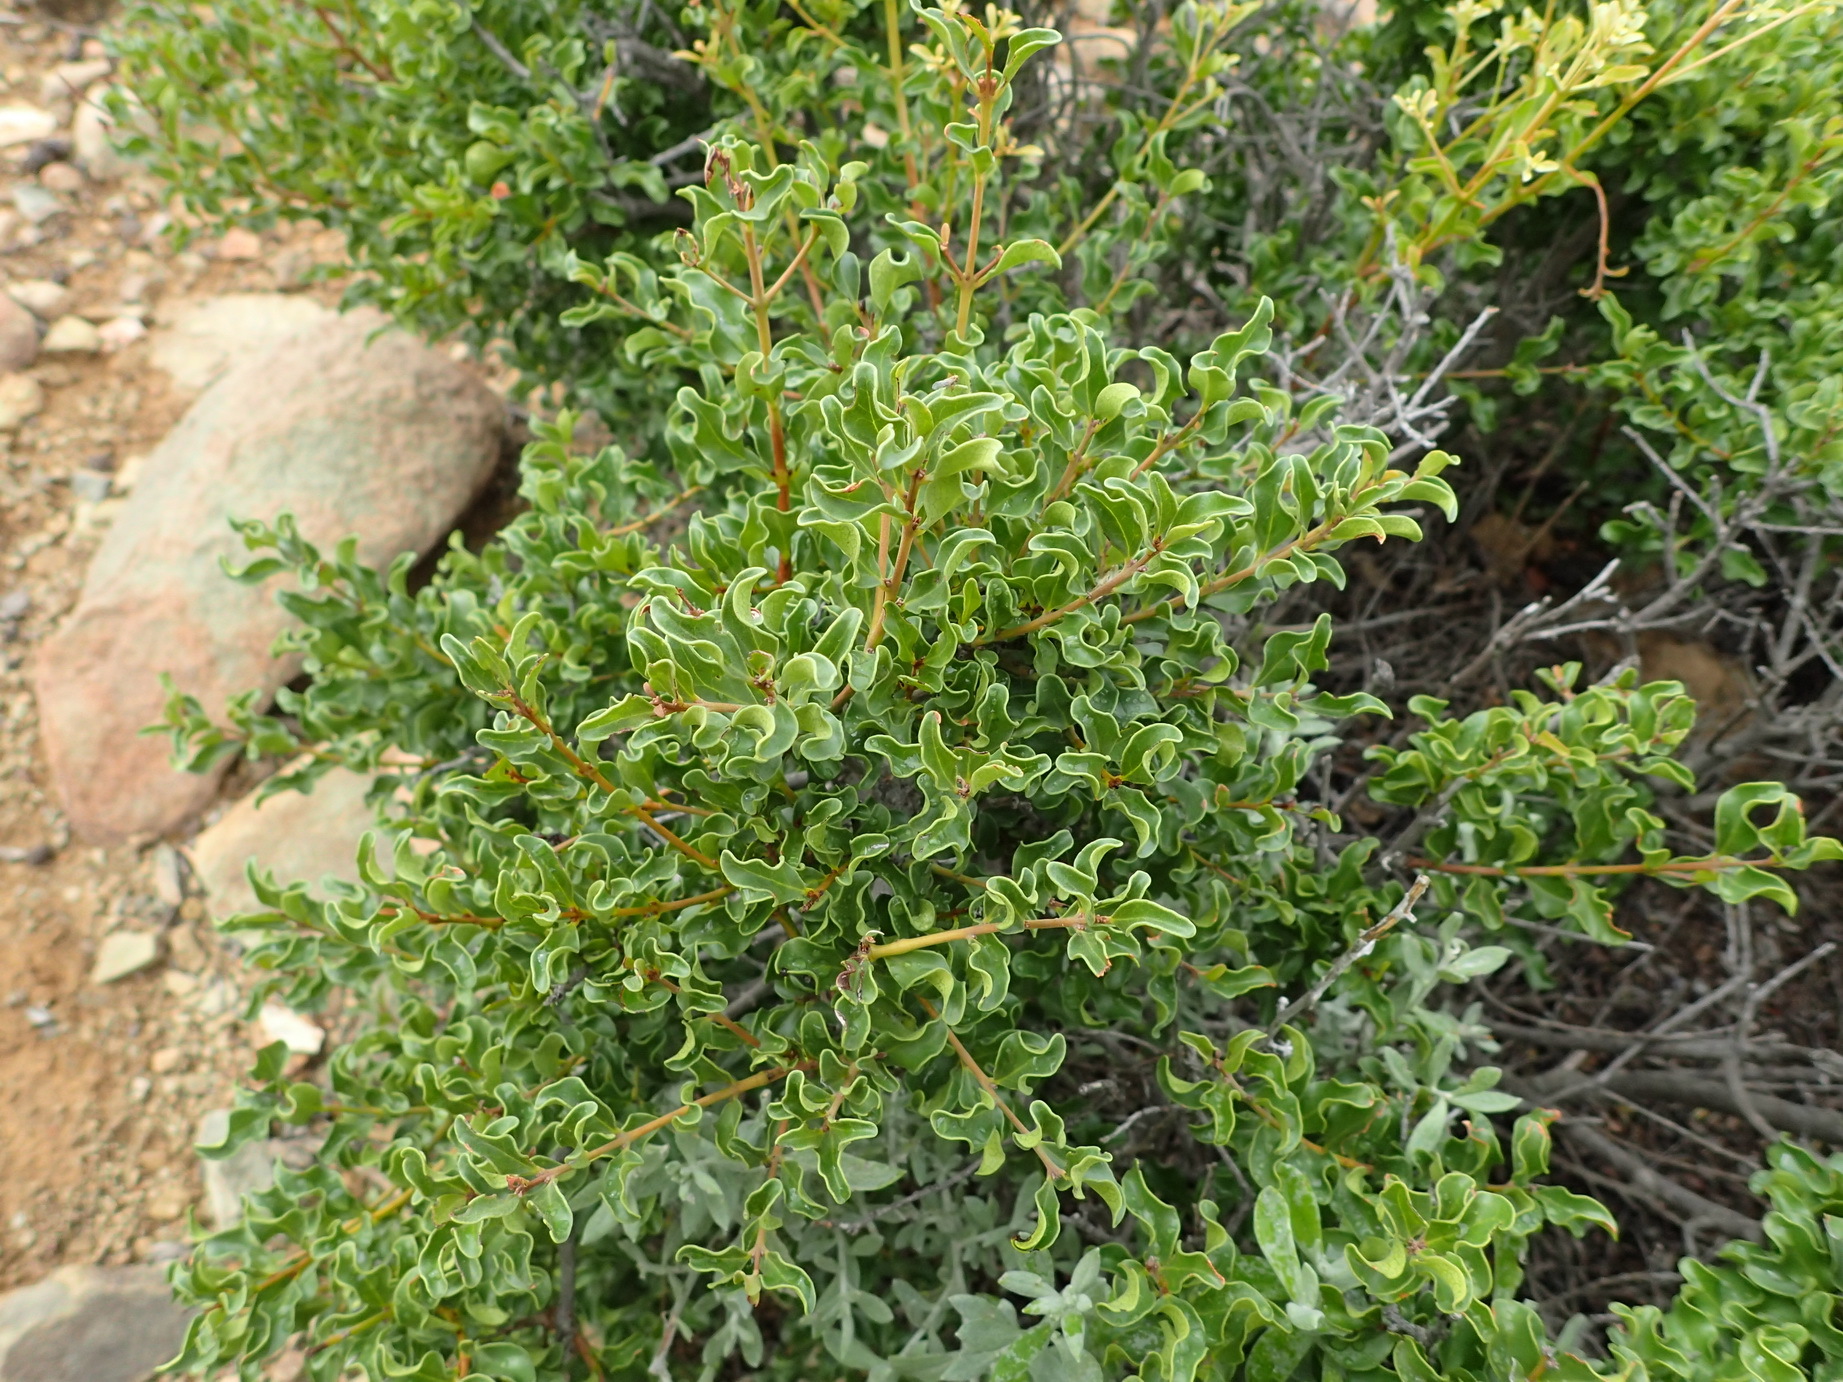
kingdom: Plantae
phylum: Tracheophyta
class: Magnoliopsida
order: Ericales
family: Ebenaceae
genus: Euclea
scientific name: Euclea undulata
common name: Small-leaved guarri
